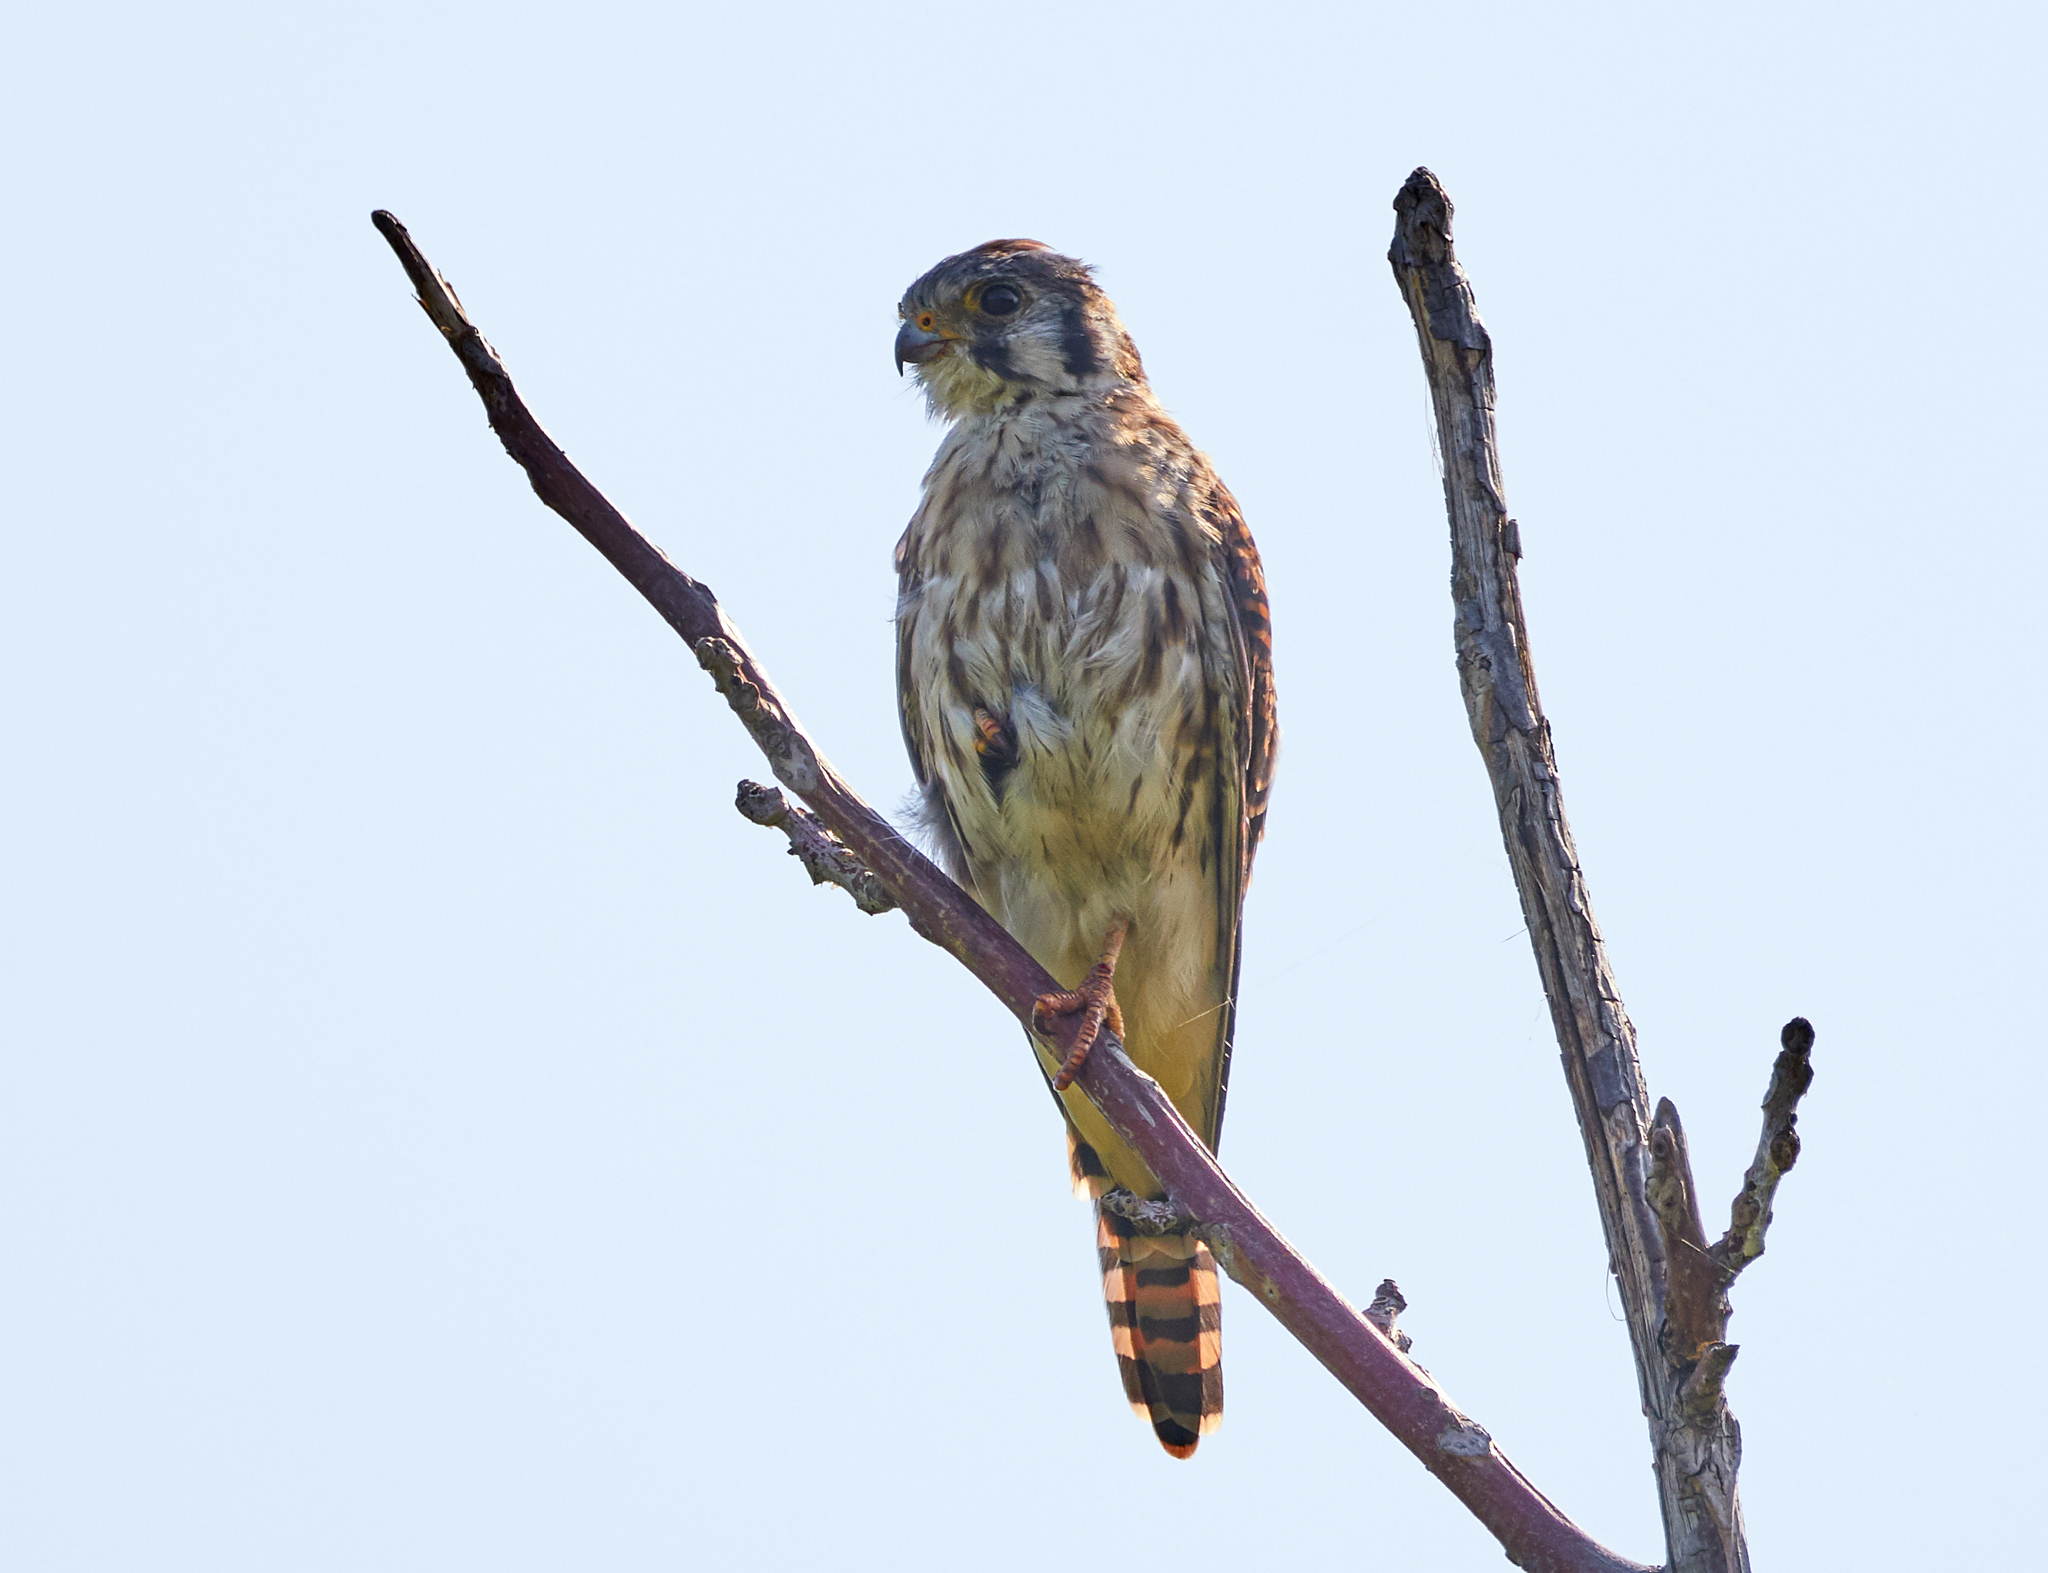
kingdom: Animalia
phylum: Chordata
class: Aves
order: Falconiformes
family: Falconidae
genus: Falco
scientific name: Falco sparverius
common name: American kestrel
